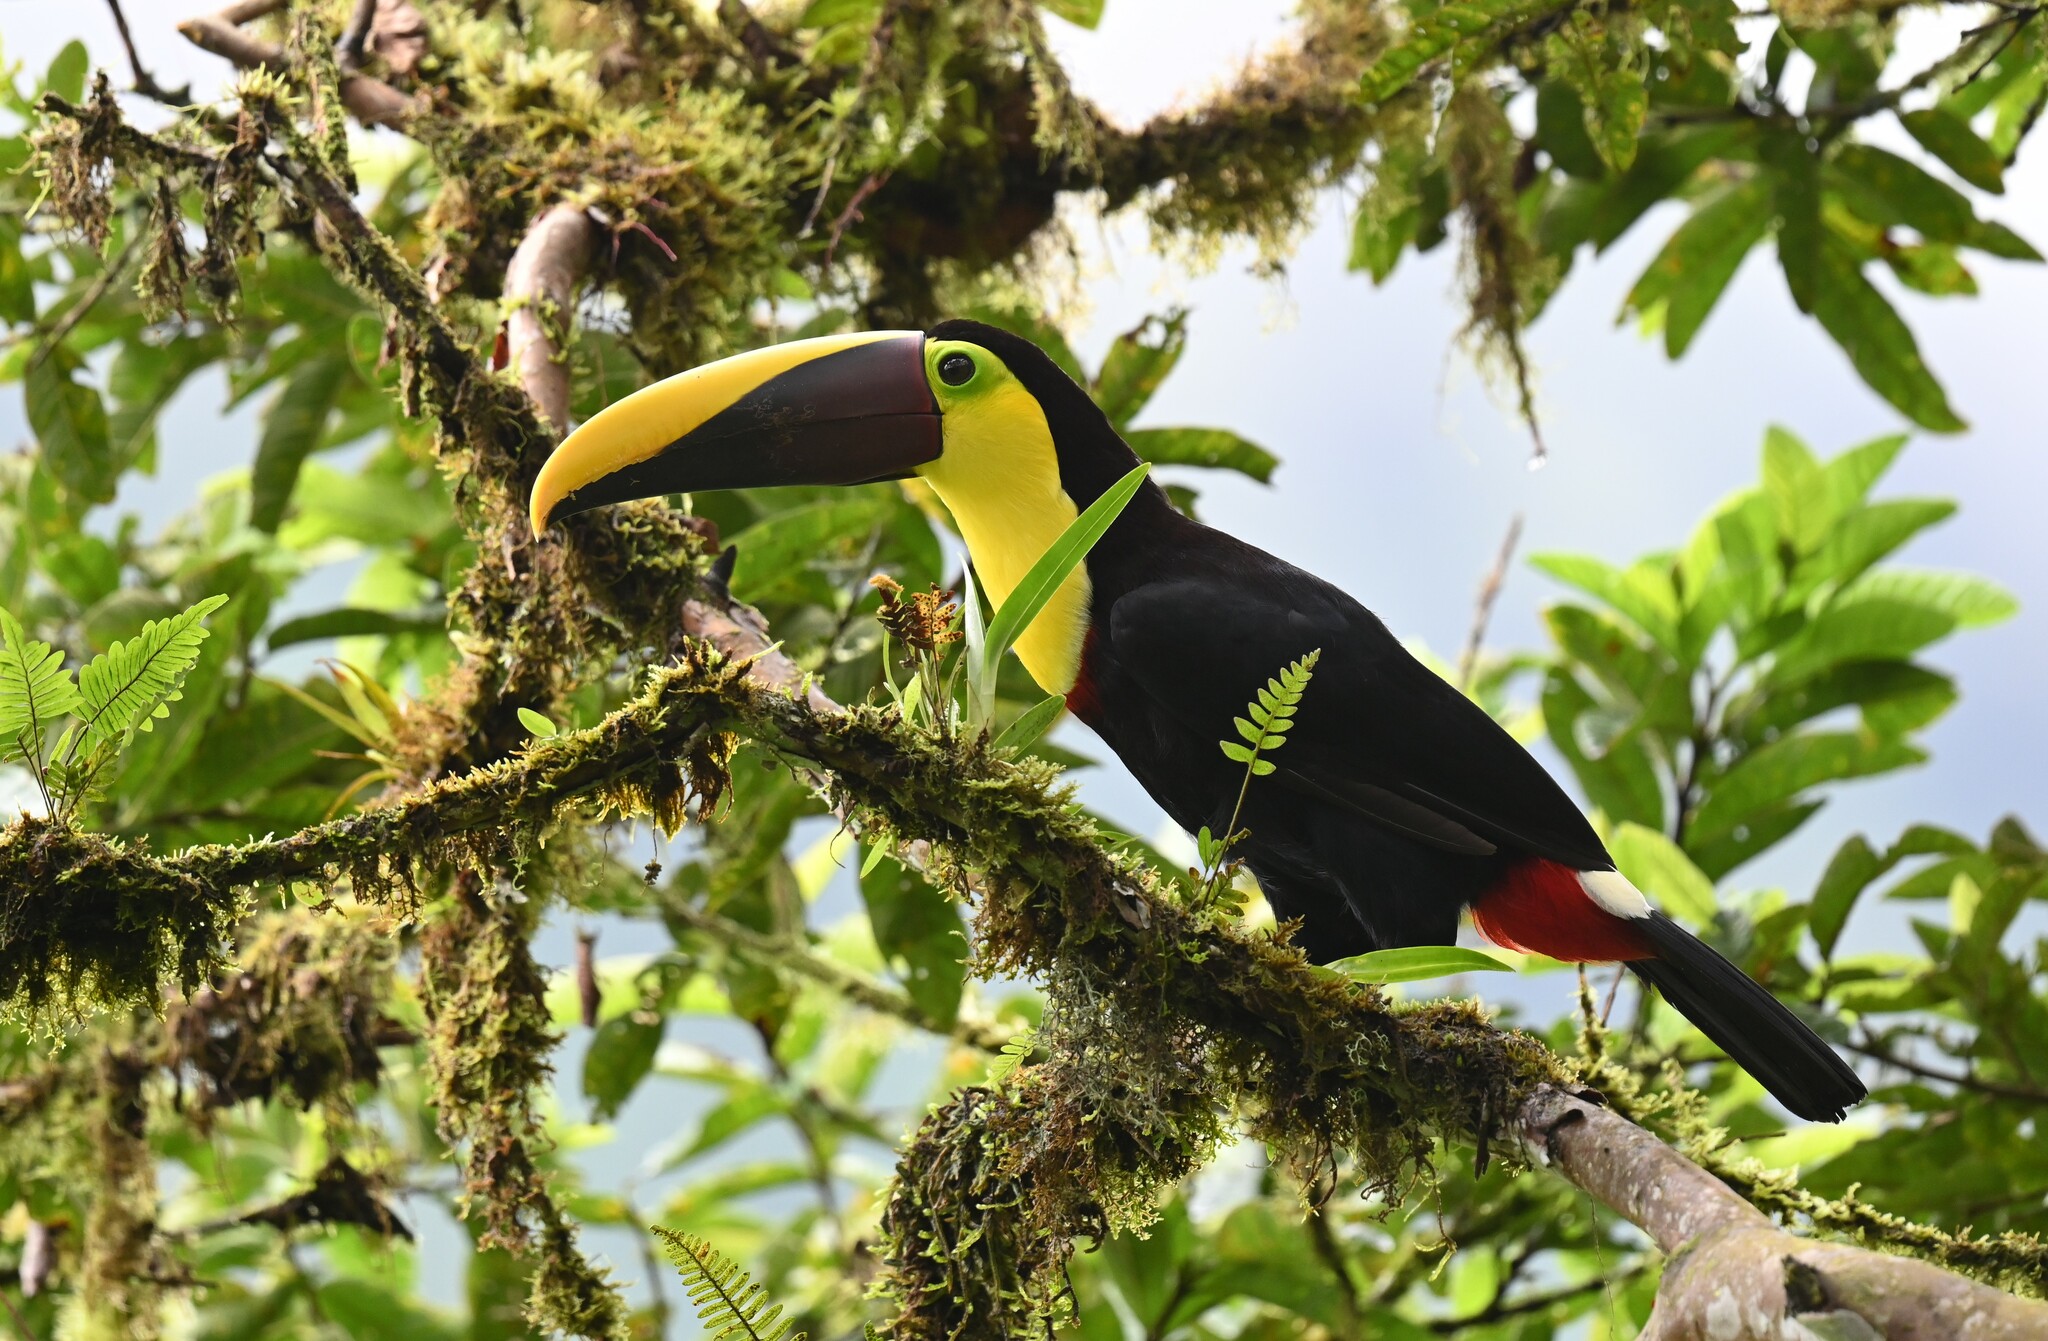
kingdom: Animalia
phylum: Chordata
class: Aves
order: Piciformes
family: Ramphastidae
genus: Ramphastos
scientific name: Ramphastos ambiguus
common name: Yellow-throated toucan
